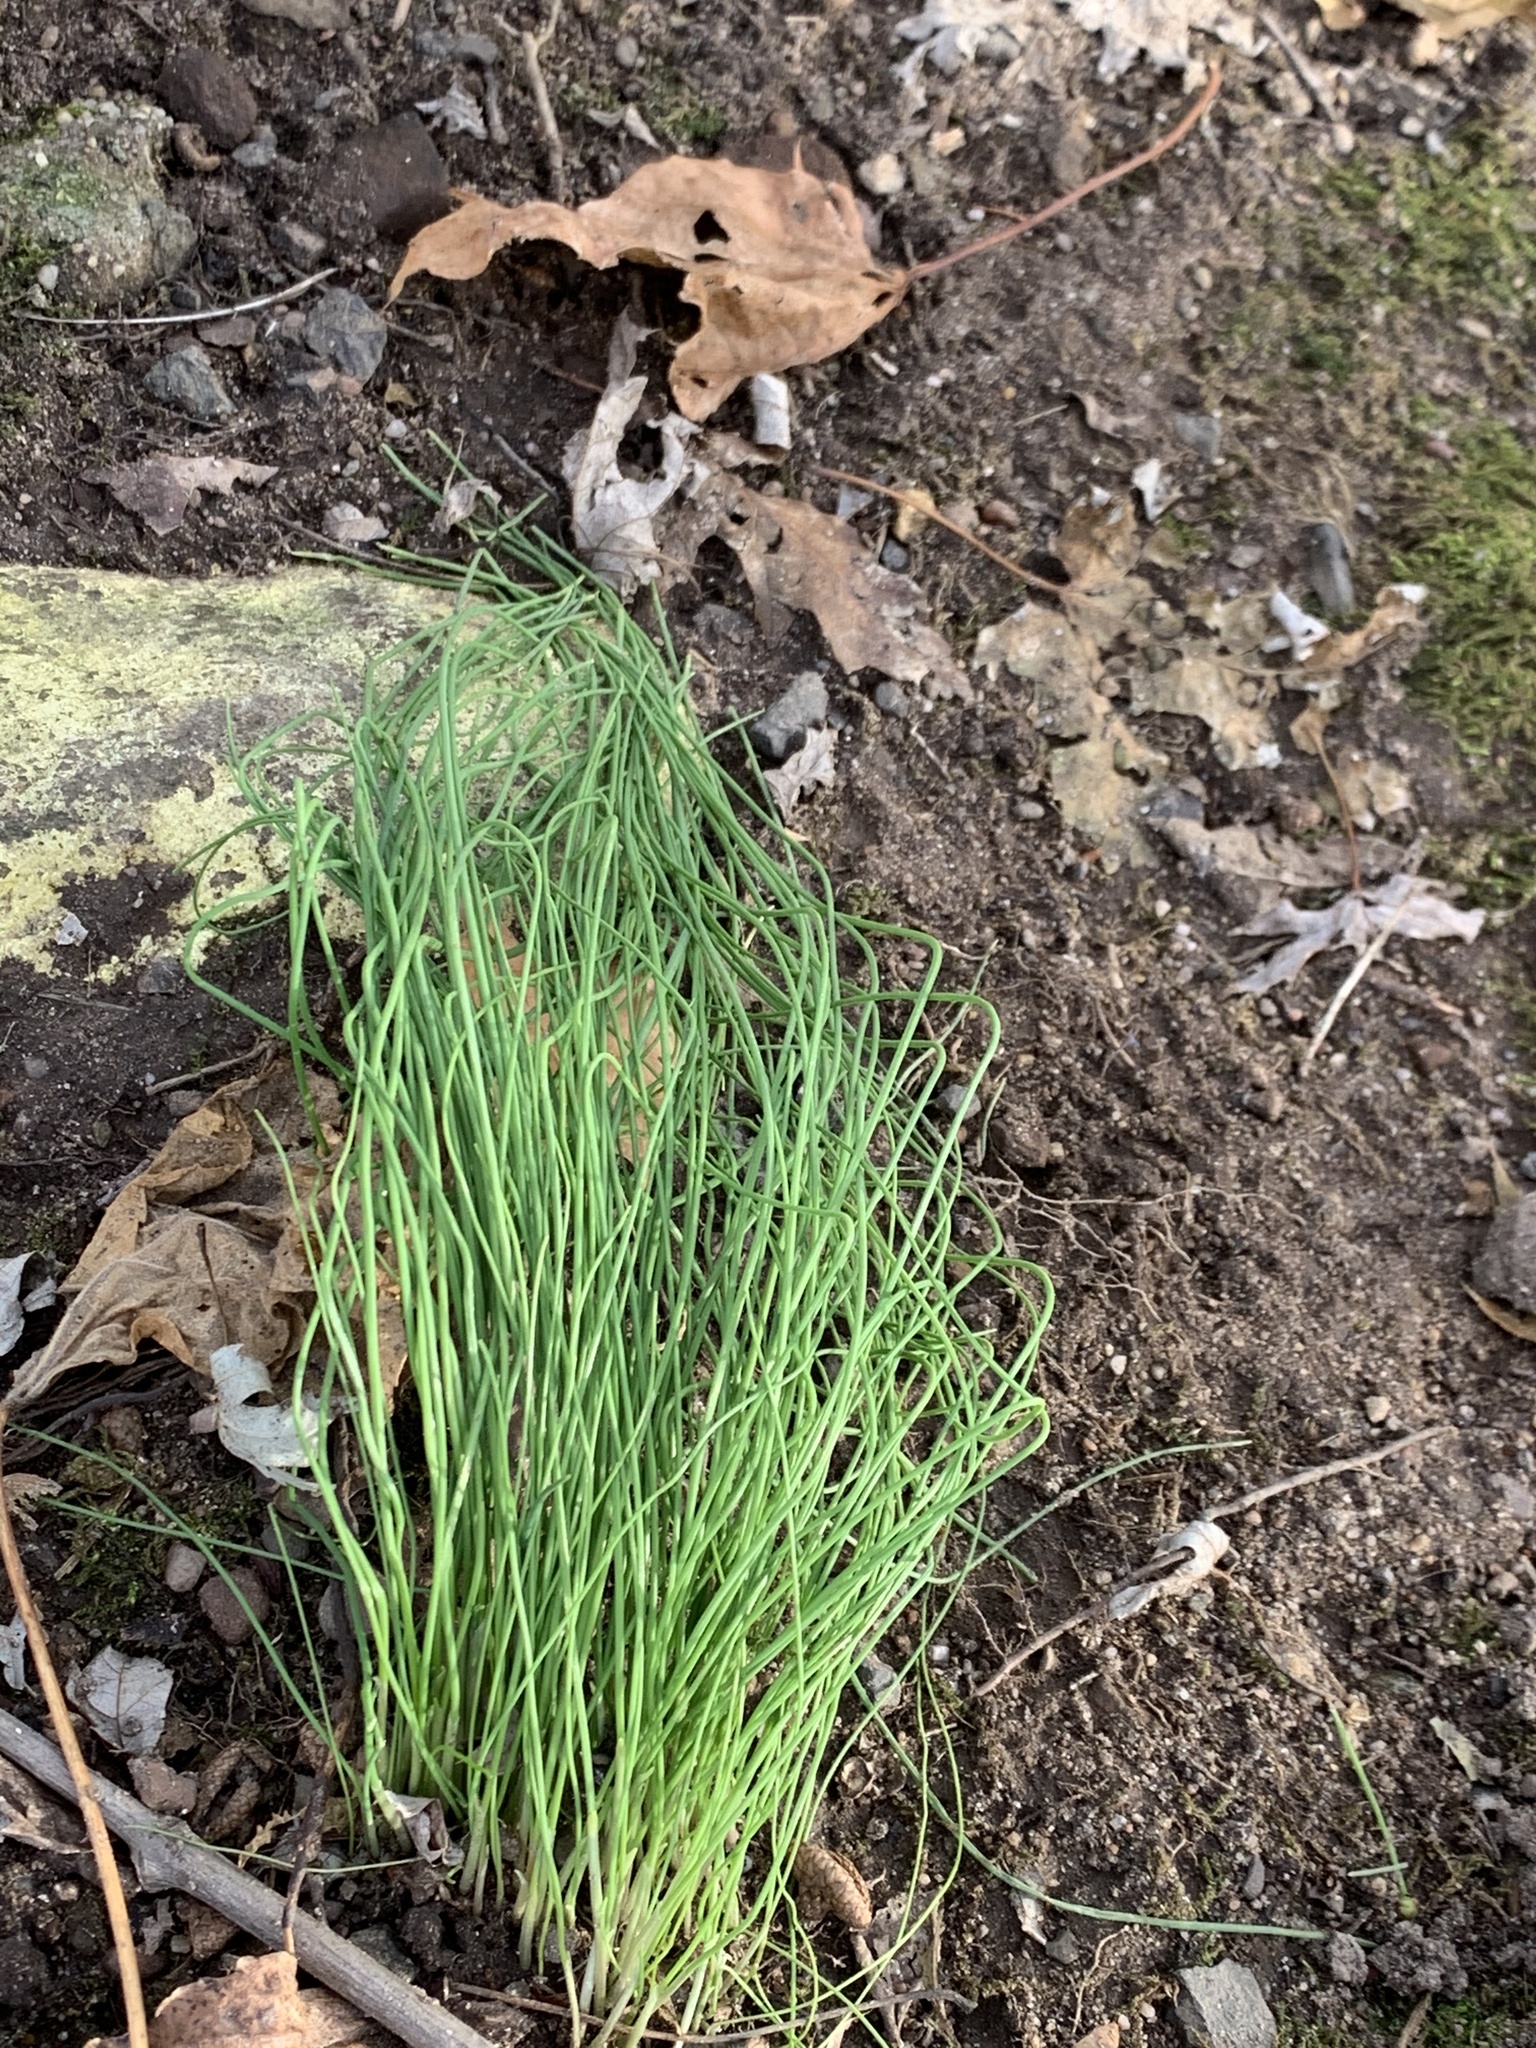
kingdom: Plantae
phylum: Tracheophyta
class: Liliopsida
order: Asparagales
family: Amaryllidaceae
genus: Allium
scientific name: Allium vineale
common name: Crow garlic
